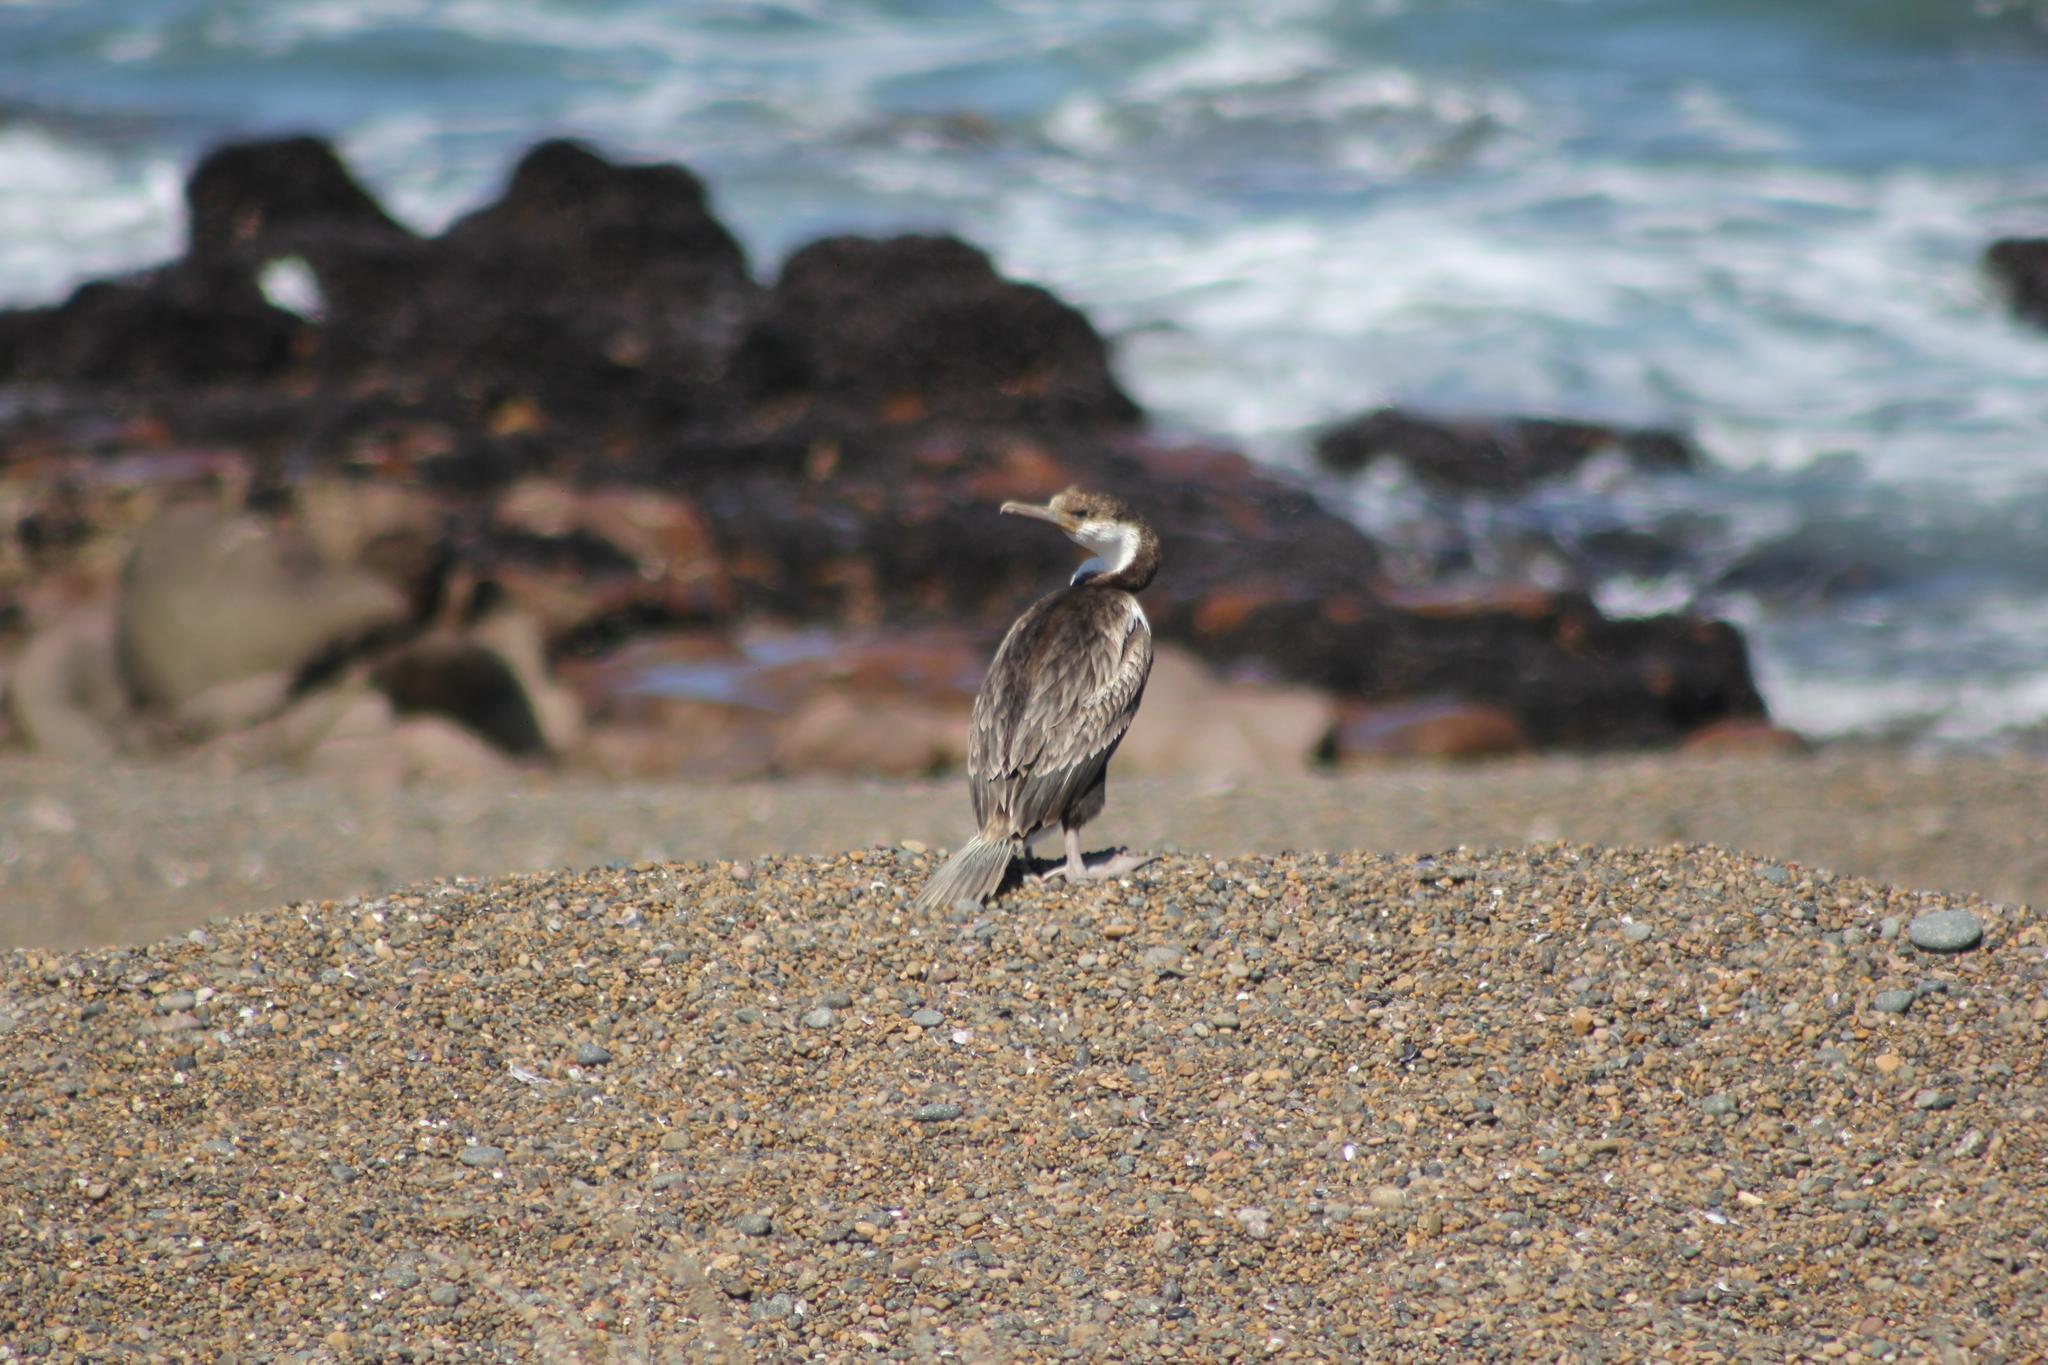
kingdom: Animalia
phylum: Chordata
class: Aves
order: Suliformes
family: Phalacrocoracidae
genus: Leucocarbo
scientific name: Leucocarbo atriceps
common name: Imperial shag
